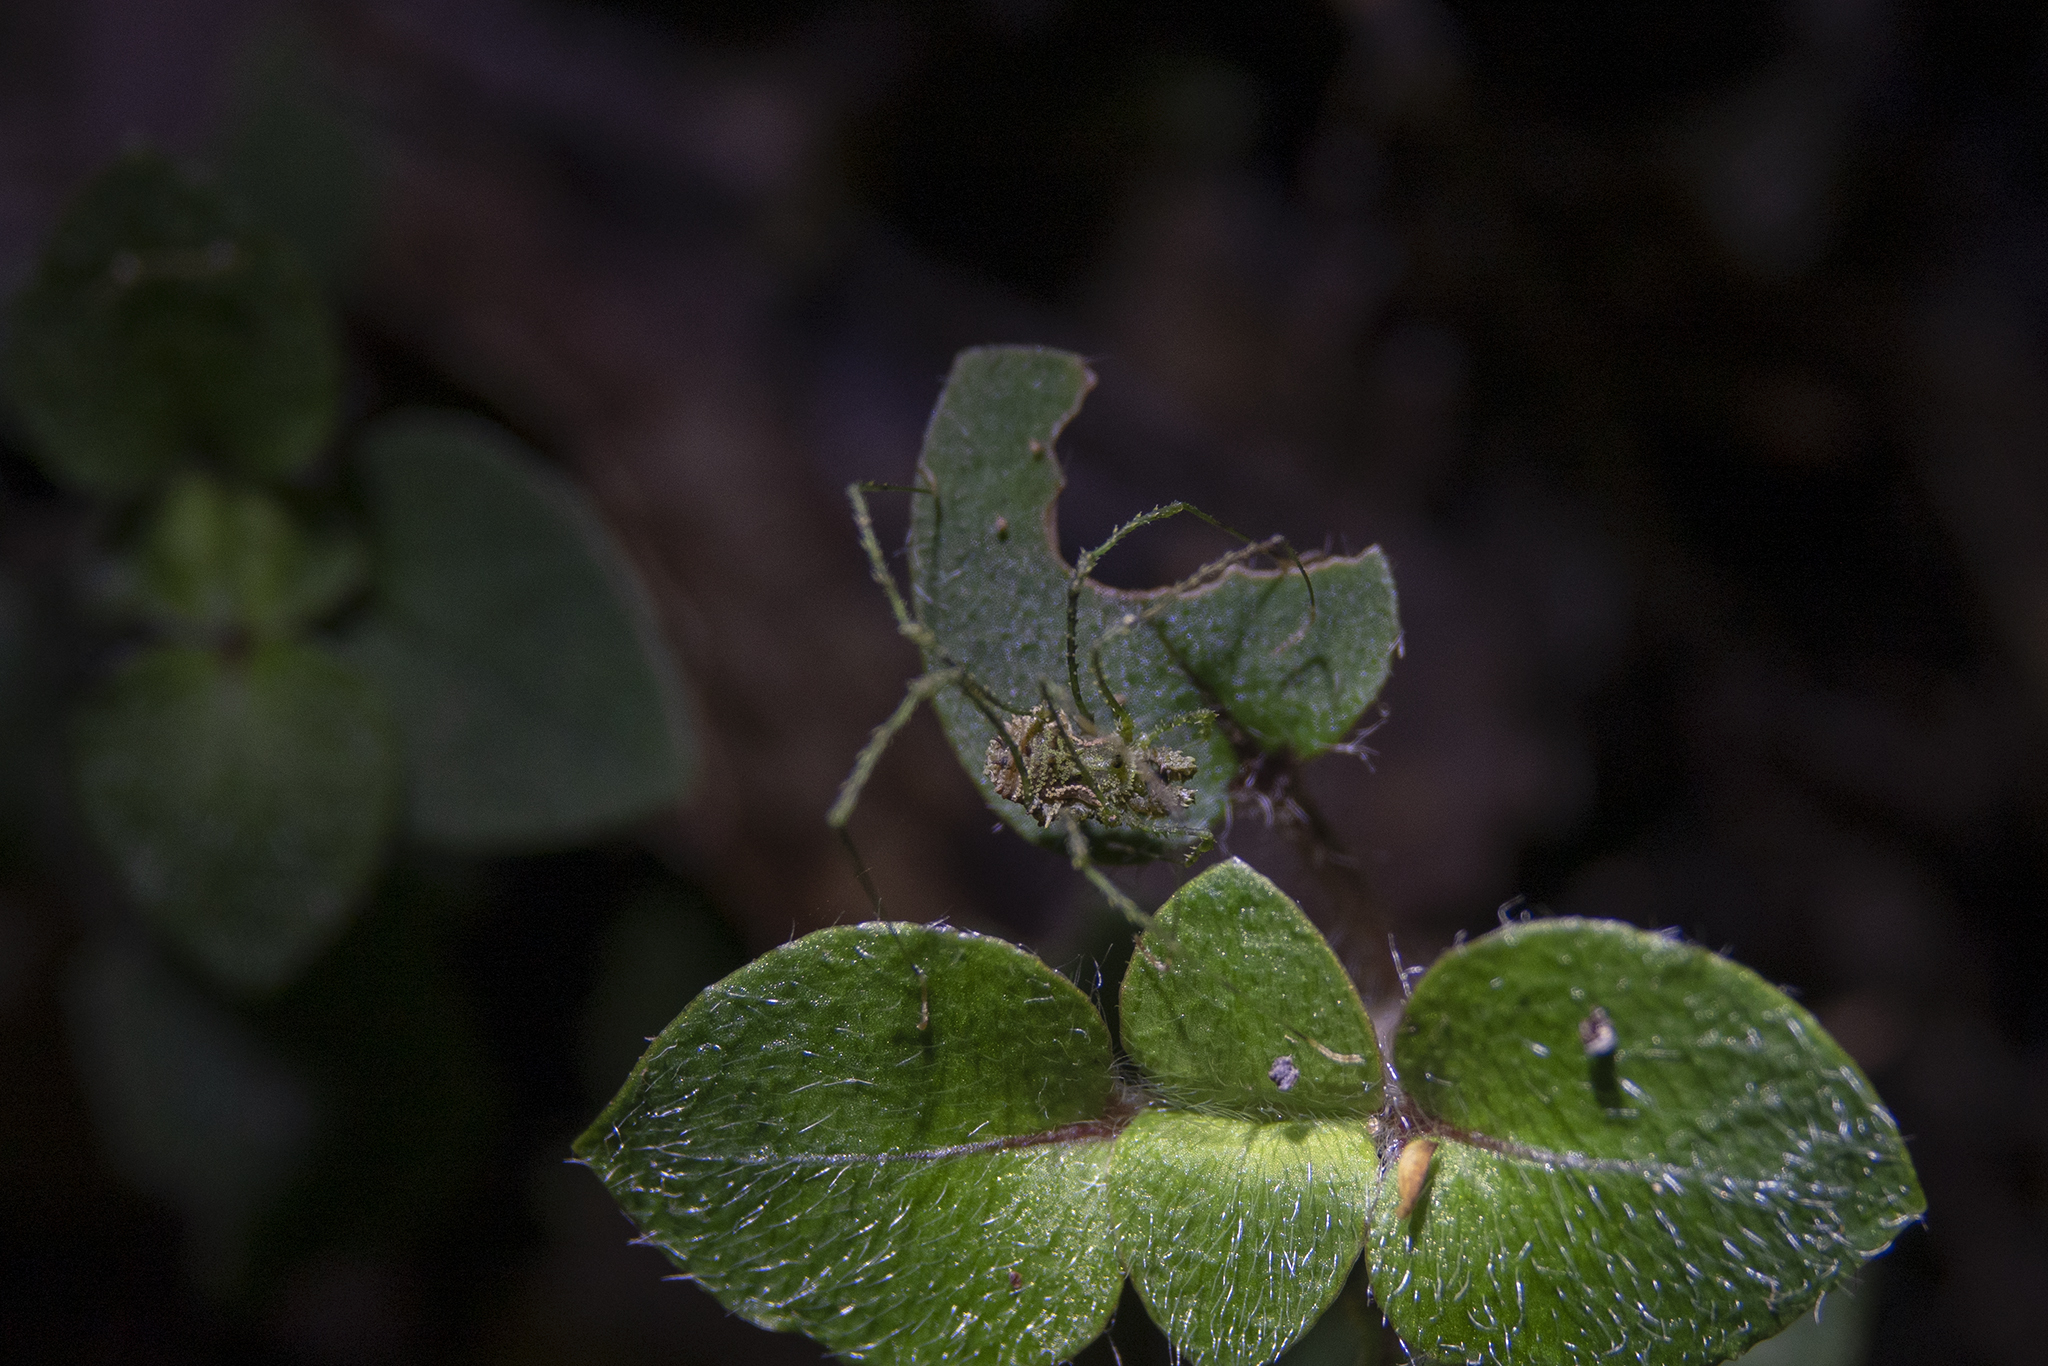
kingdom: Animalia
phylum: Arthropoda
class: Arachnida
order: Opiliones
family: Triaenonychidae
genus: Algidia
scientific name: Algidia viridata
